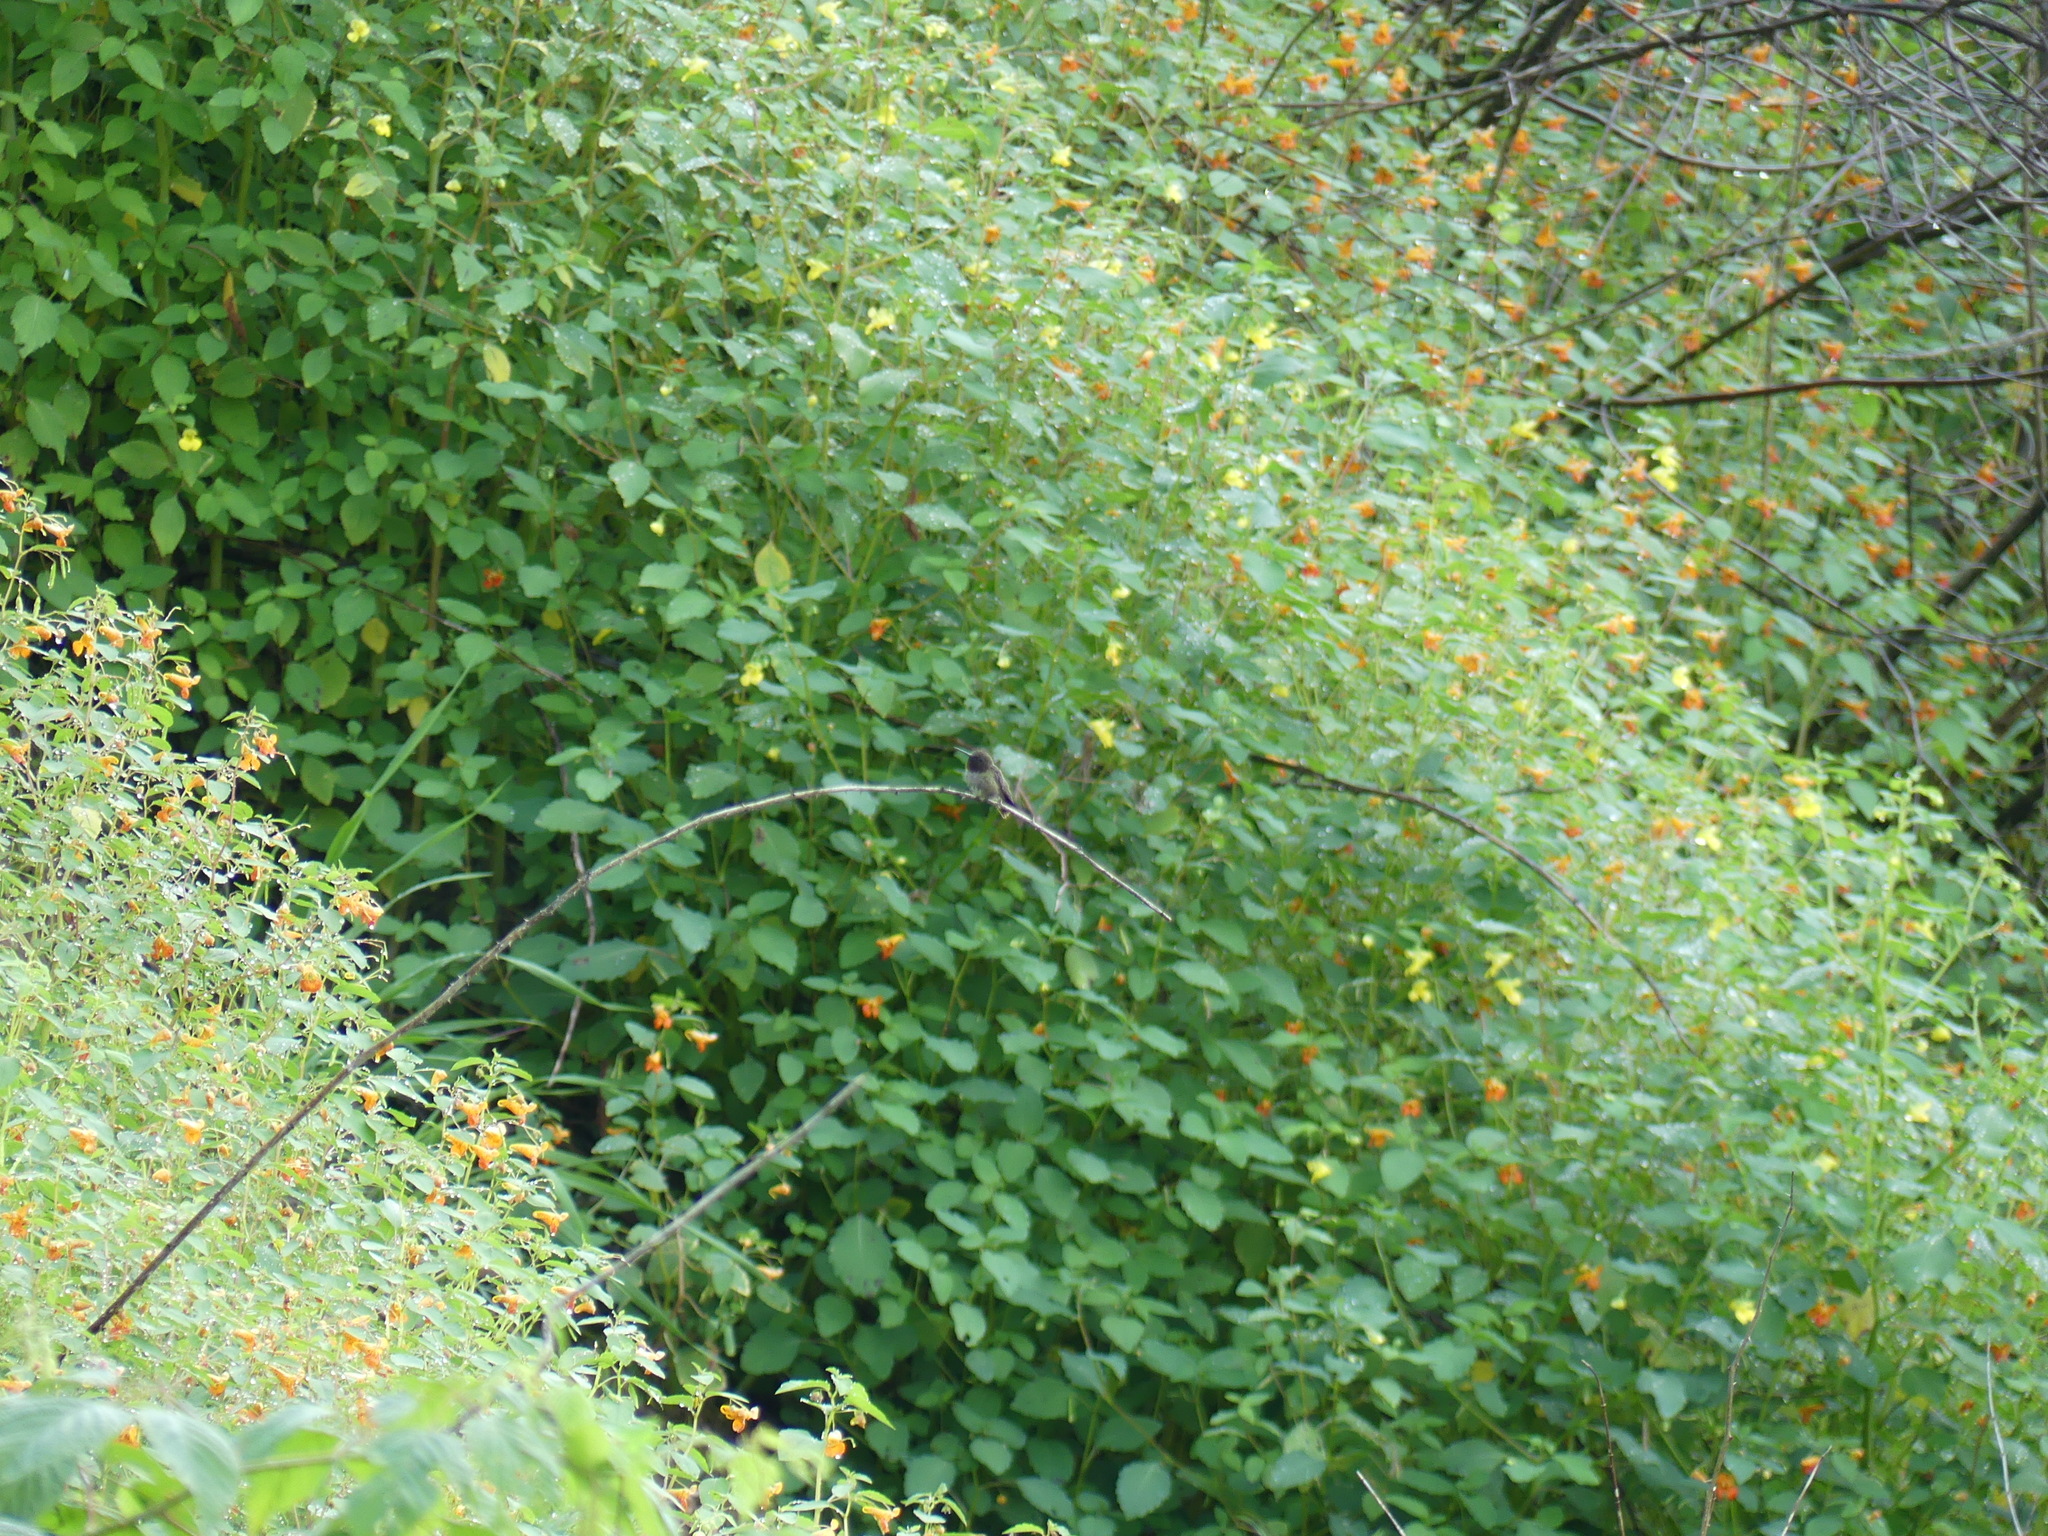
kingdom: Animalia
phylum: Chordata
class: Aves
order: Apodiformes
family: Trochilidae
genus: Archilochus
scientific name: Archilochus colubris
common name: Ruby-throated hummingbird
